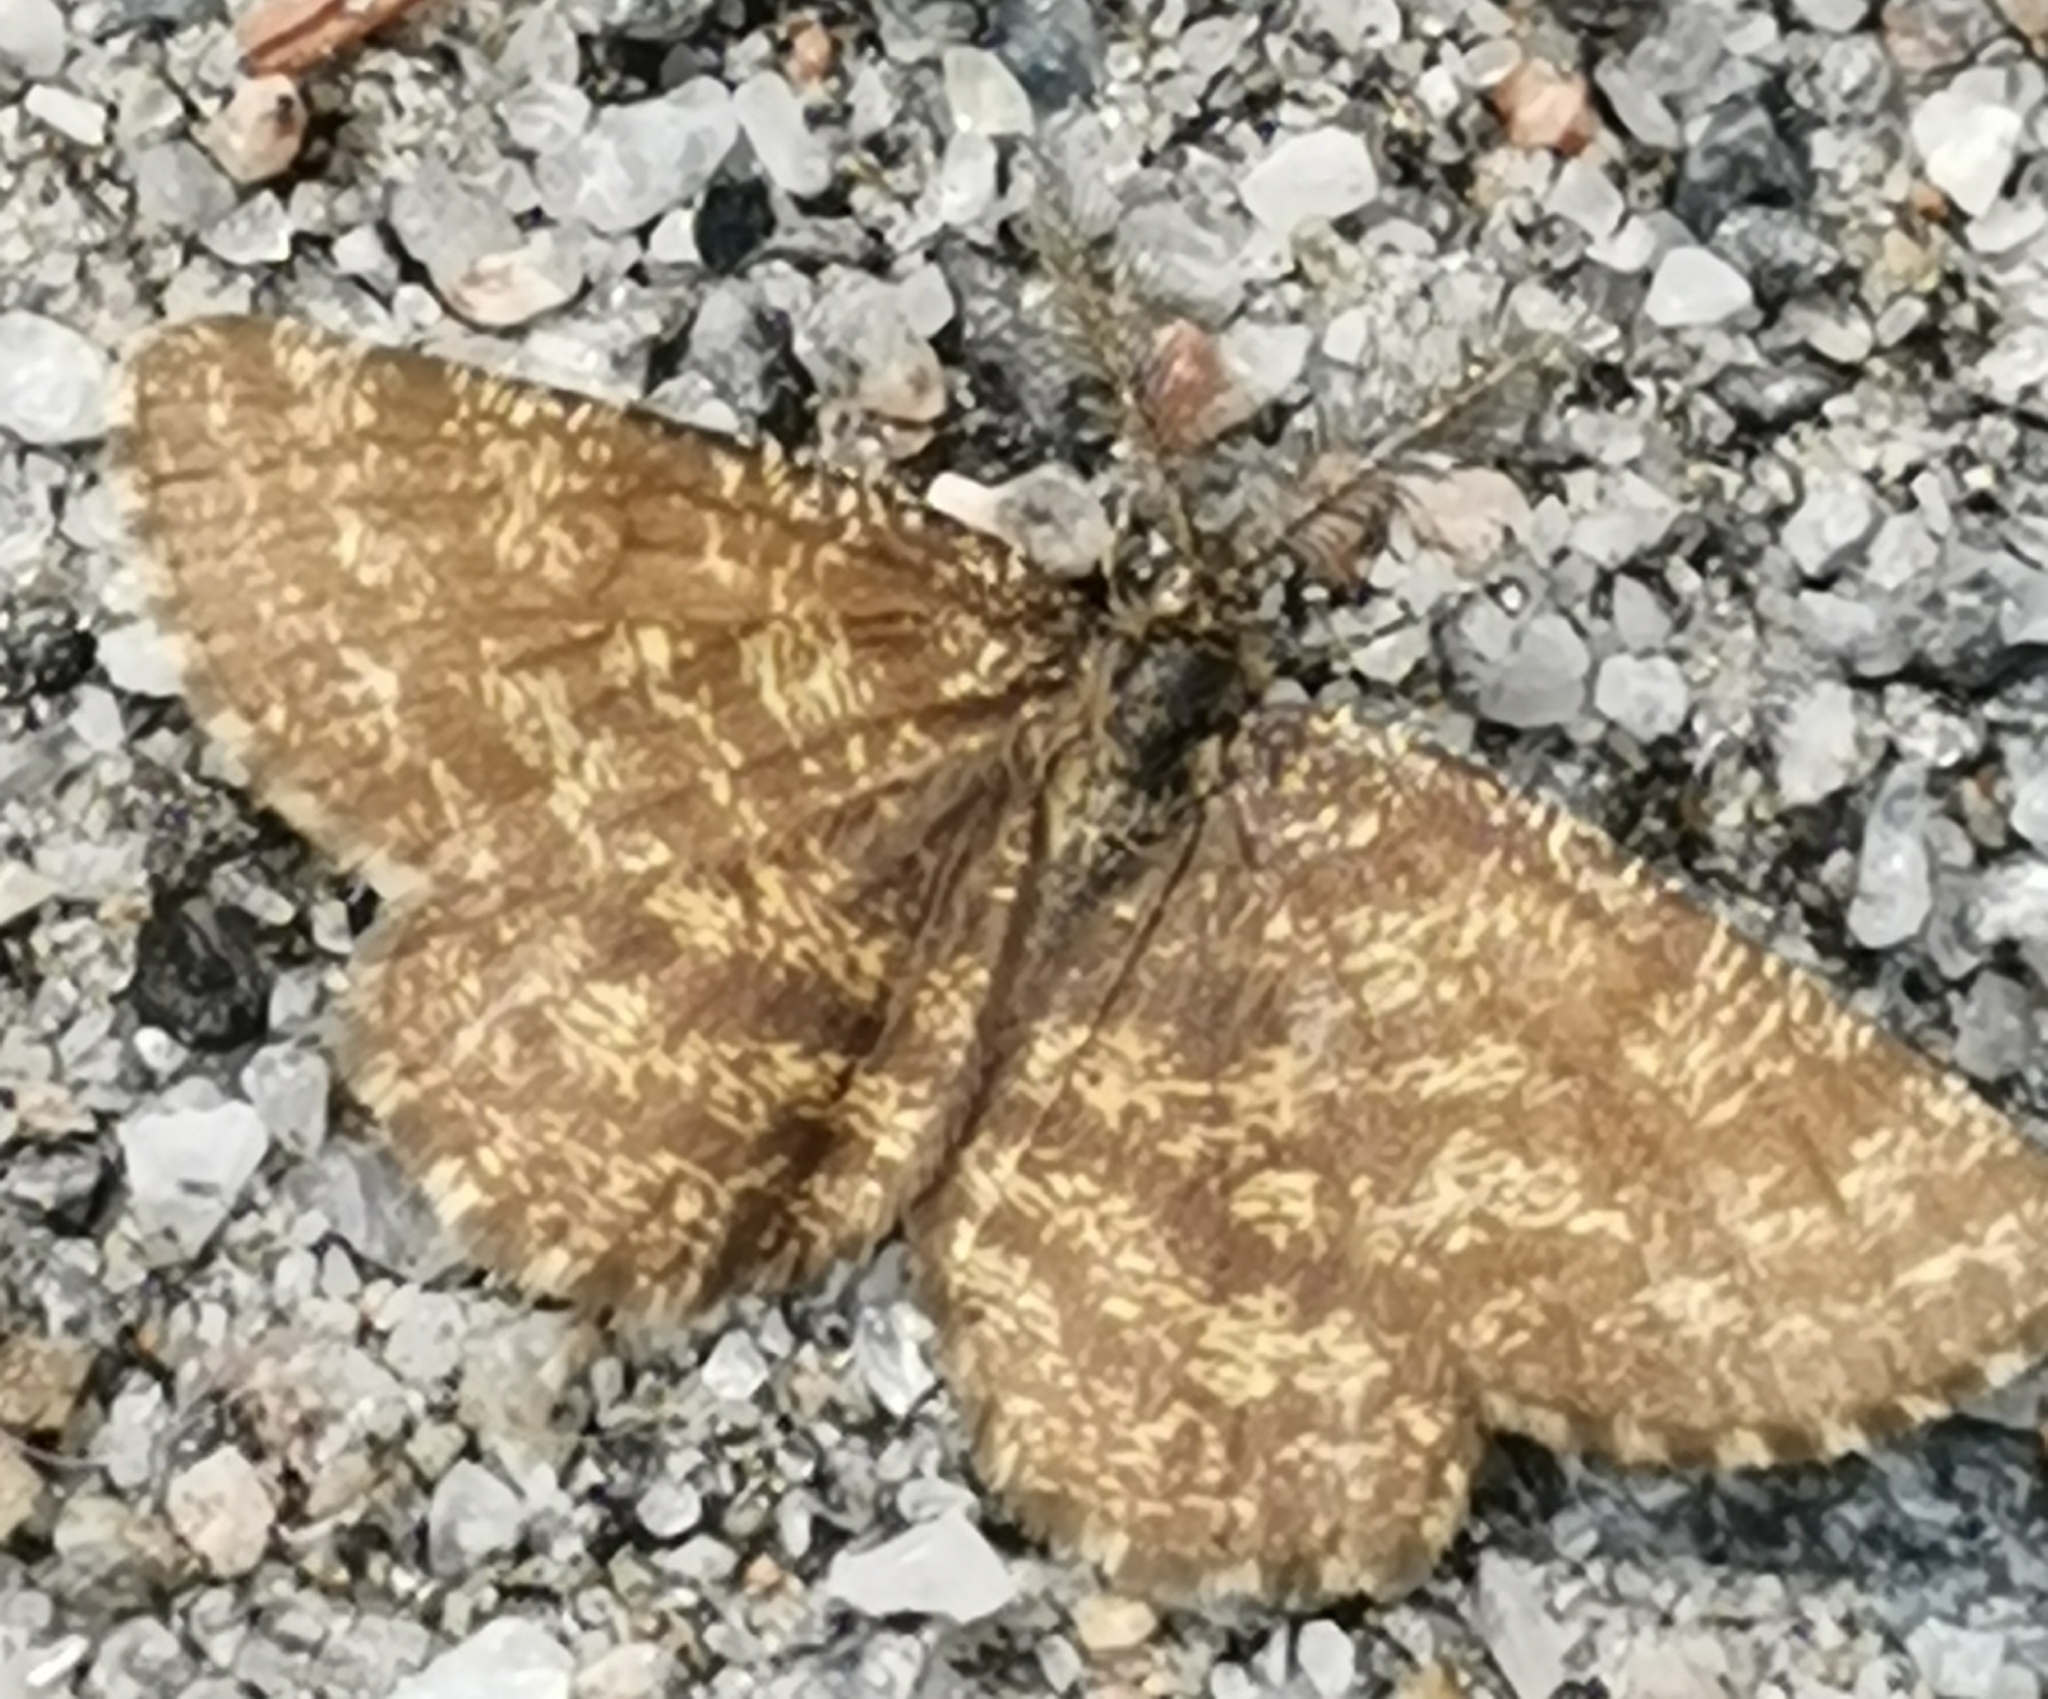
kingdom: Animalia
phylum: Arthropoda
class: Insecta
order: Lepidoptera
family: Geometridae
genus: Ematurga
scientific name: Ematurga atomaria
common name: Common heath
